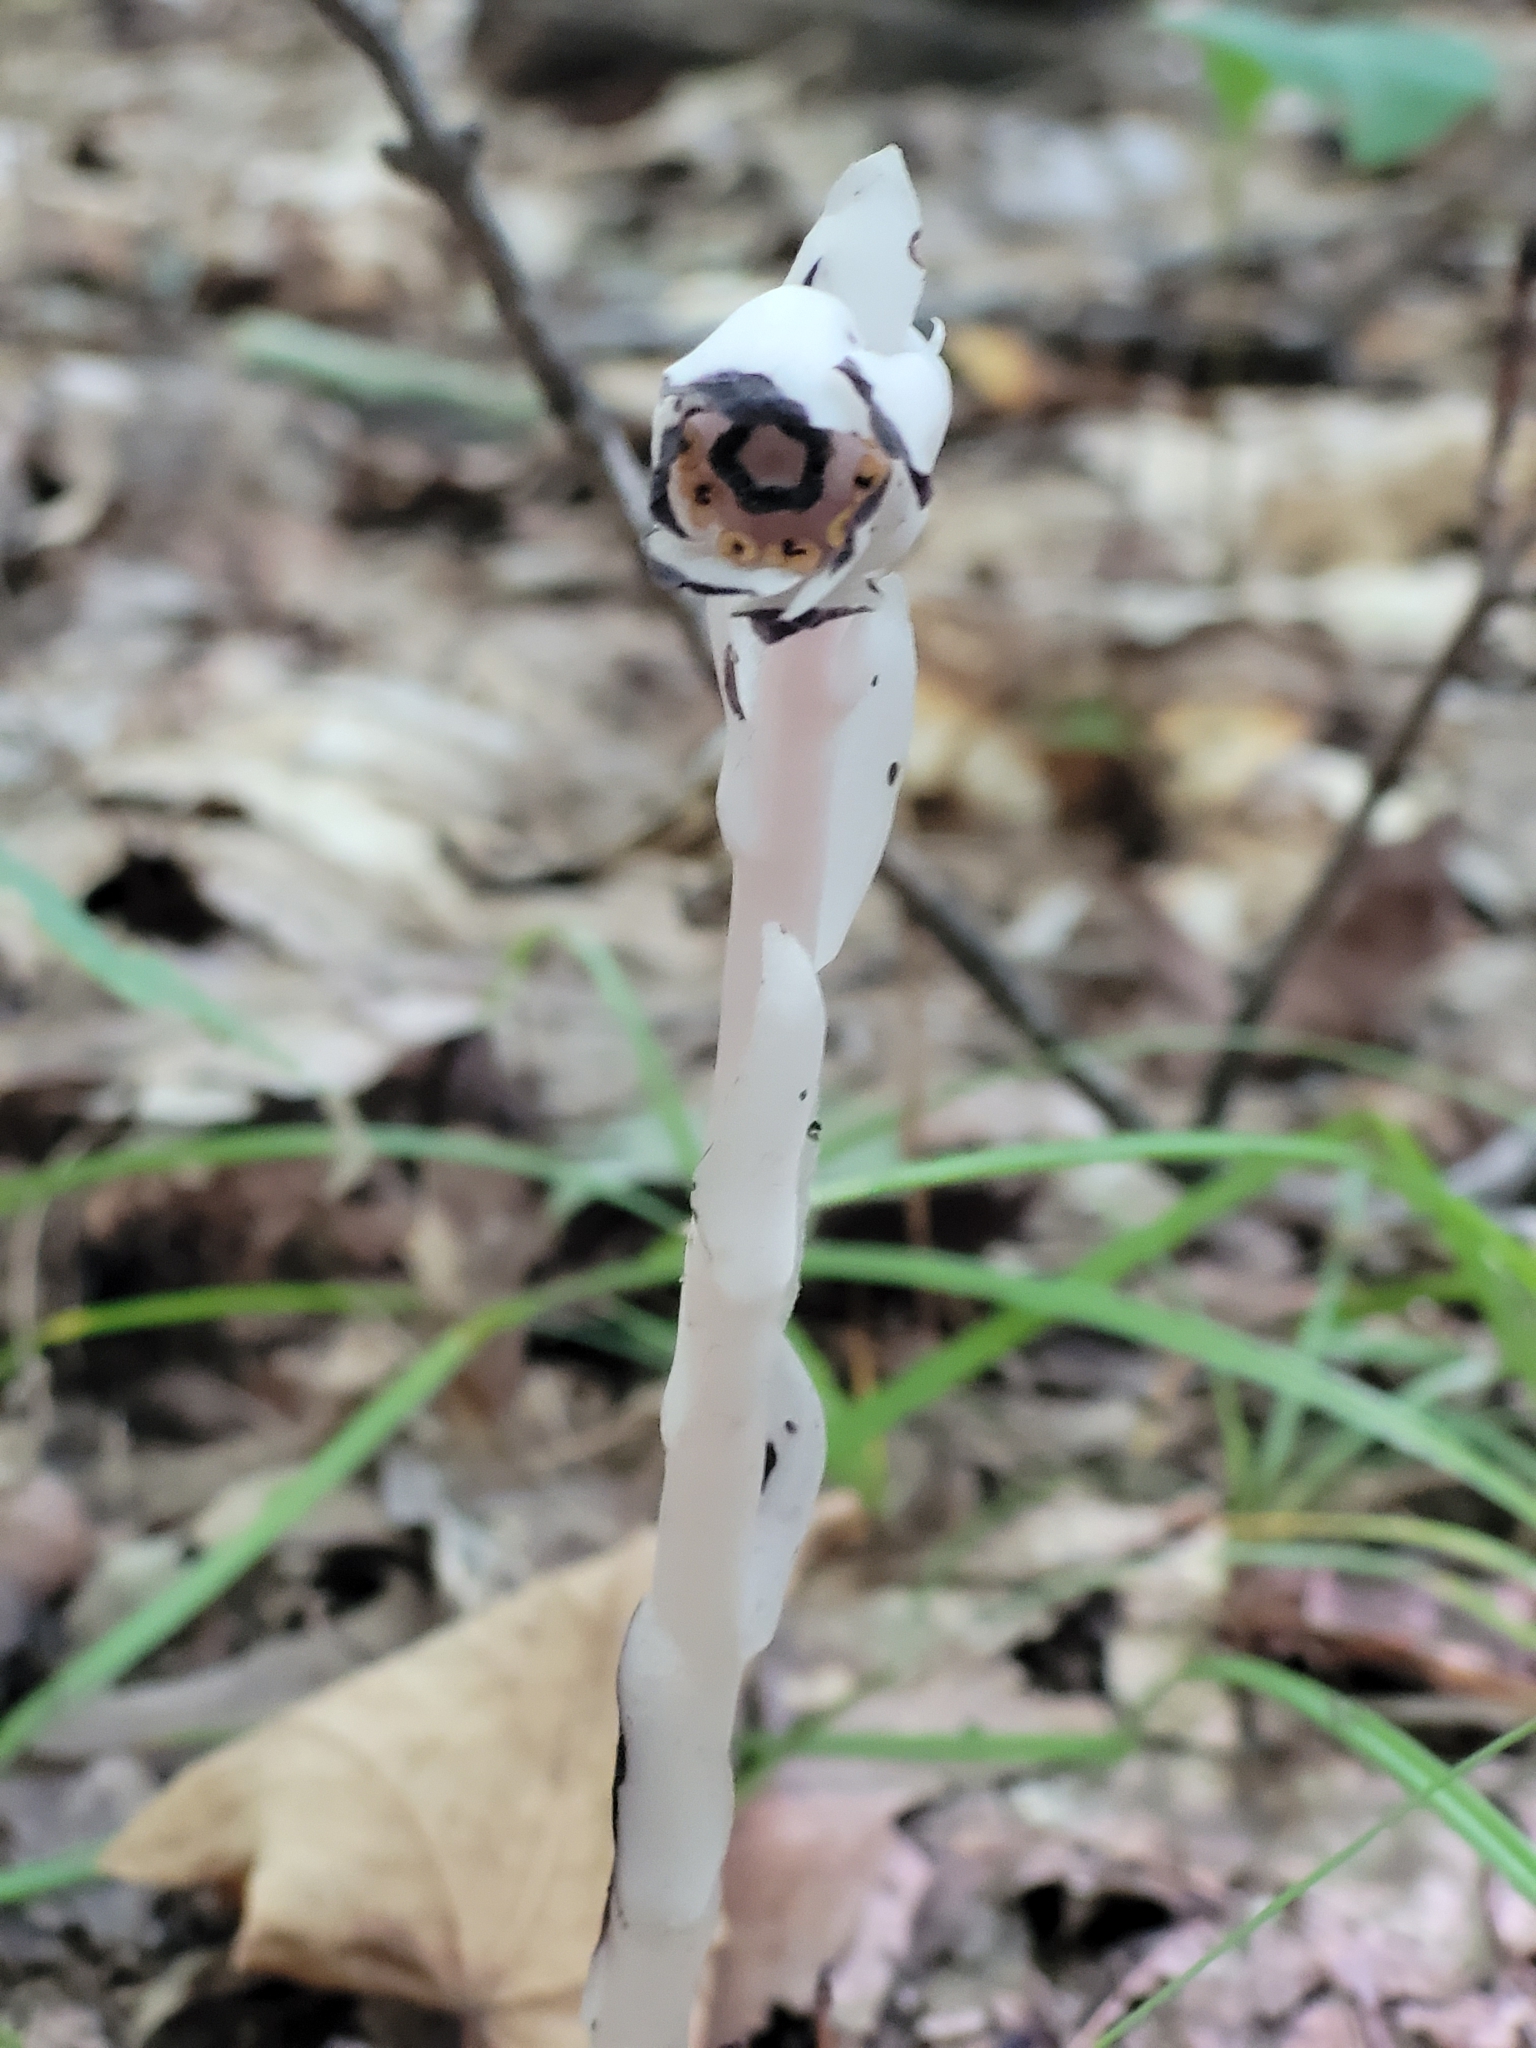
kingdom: Plantae
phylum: Tracheophyta
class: Magnoliopsida
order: Ericales
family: Ericaceae
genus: Monotropa
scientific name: Monotropa uniflora
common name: Convulsion root
